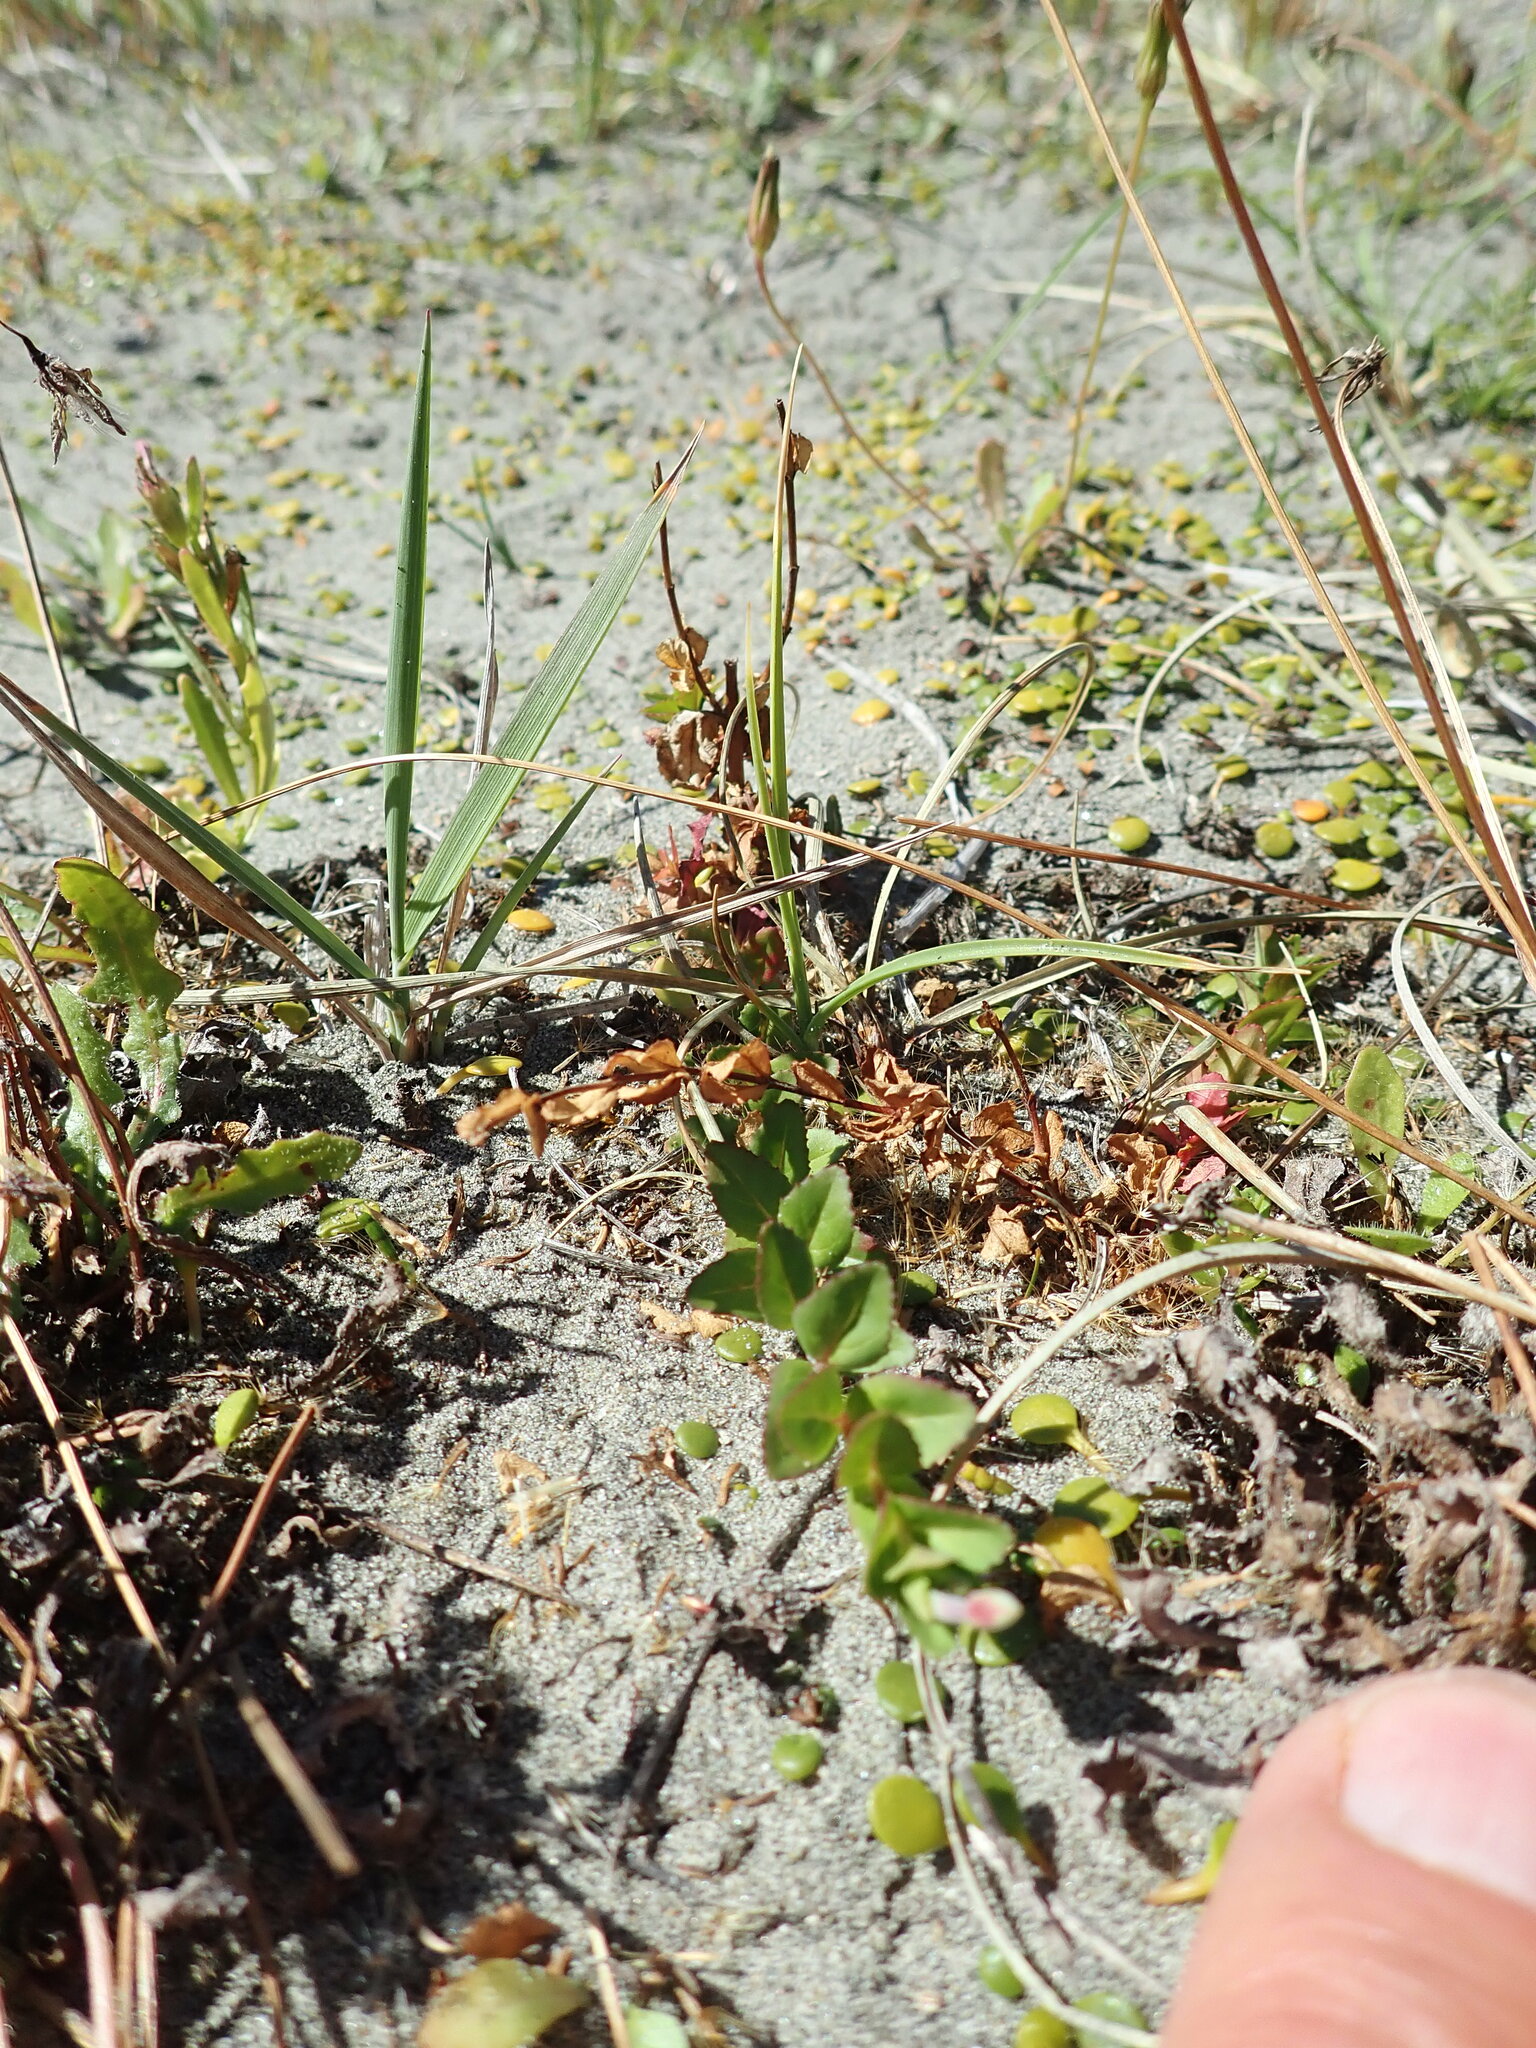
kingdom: Plantae
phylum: Tracheophyta
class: Magnoliopsida
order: Myrtales
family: Onagraceae
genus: Epilobium
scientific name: Epilobium billardiereanum
